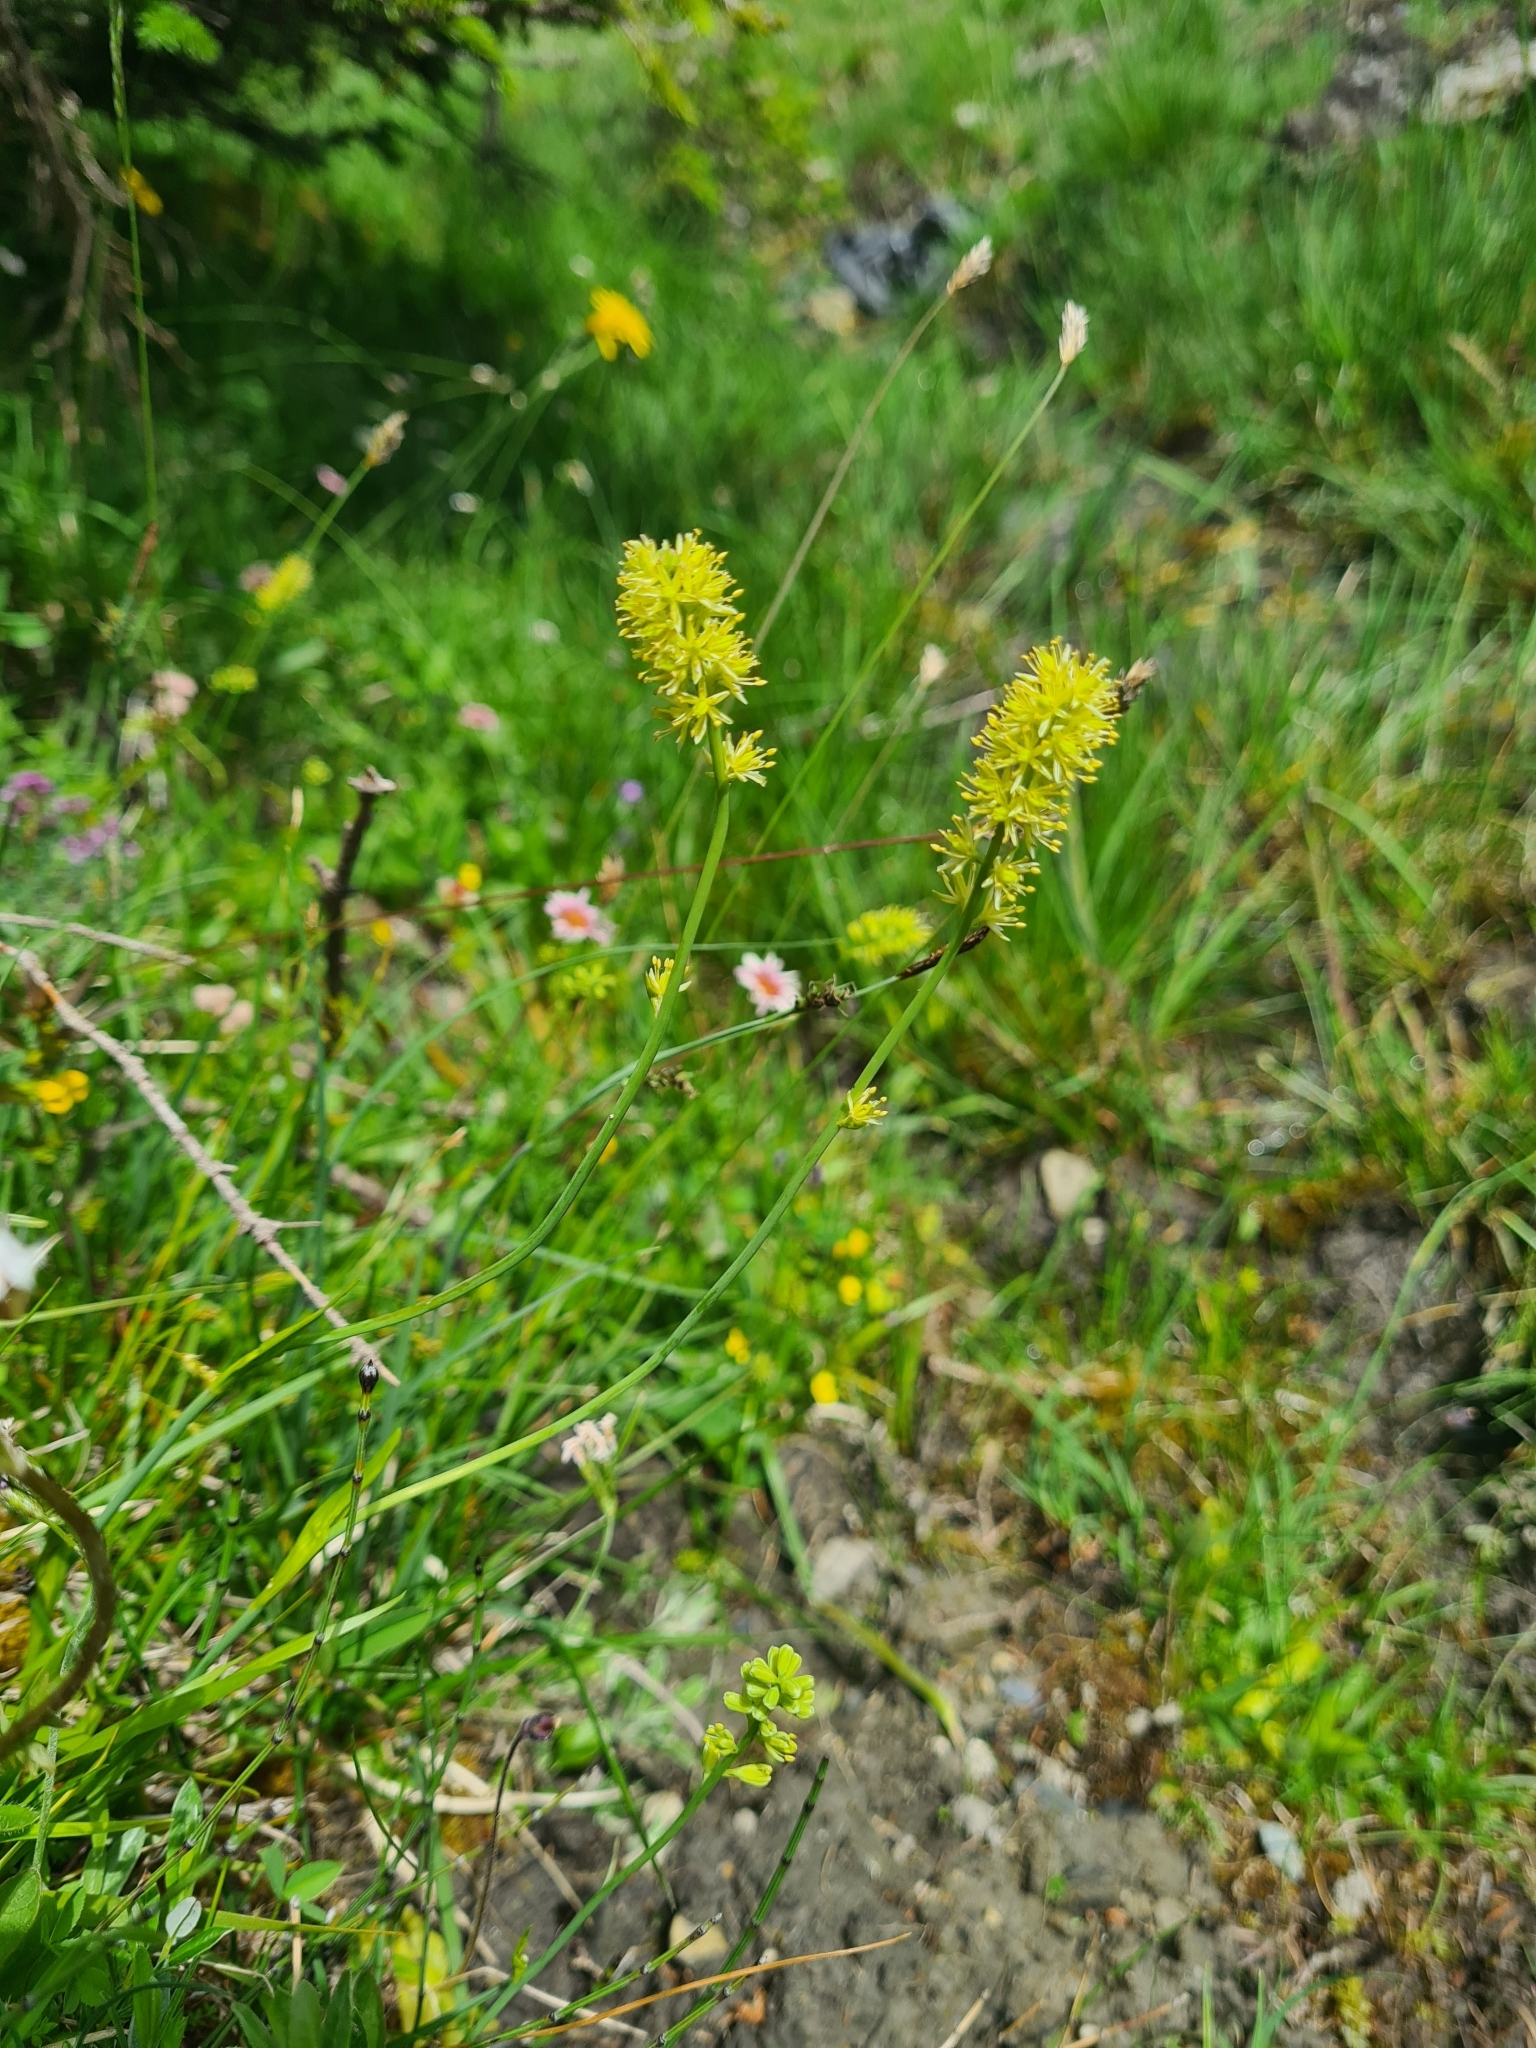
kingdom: Plantae
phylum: Tracheophyta
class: Liliopsida
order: Alismatales
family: Tofieldiaceae
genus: Tofieldia
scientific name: Tofieldia calyculata
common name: German-asphodel
